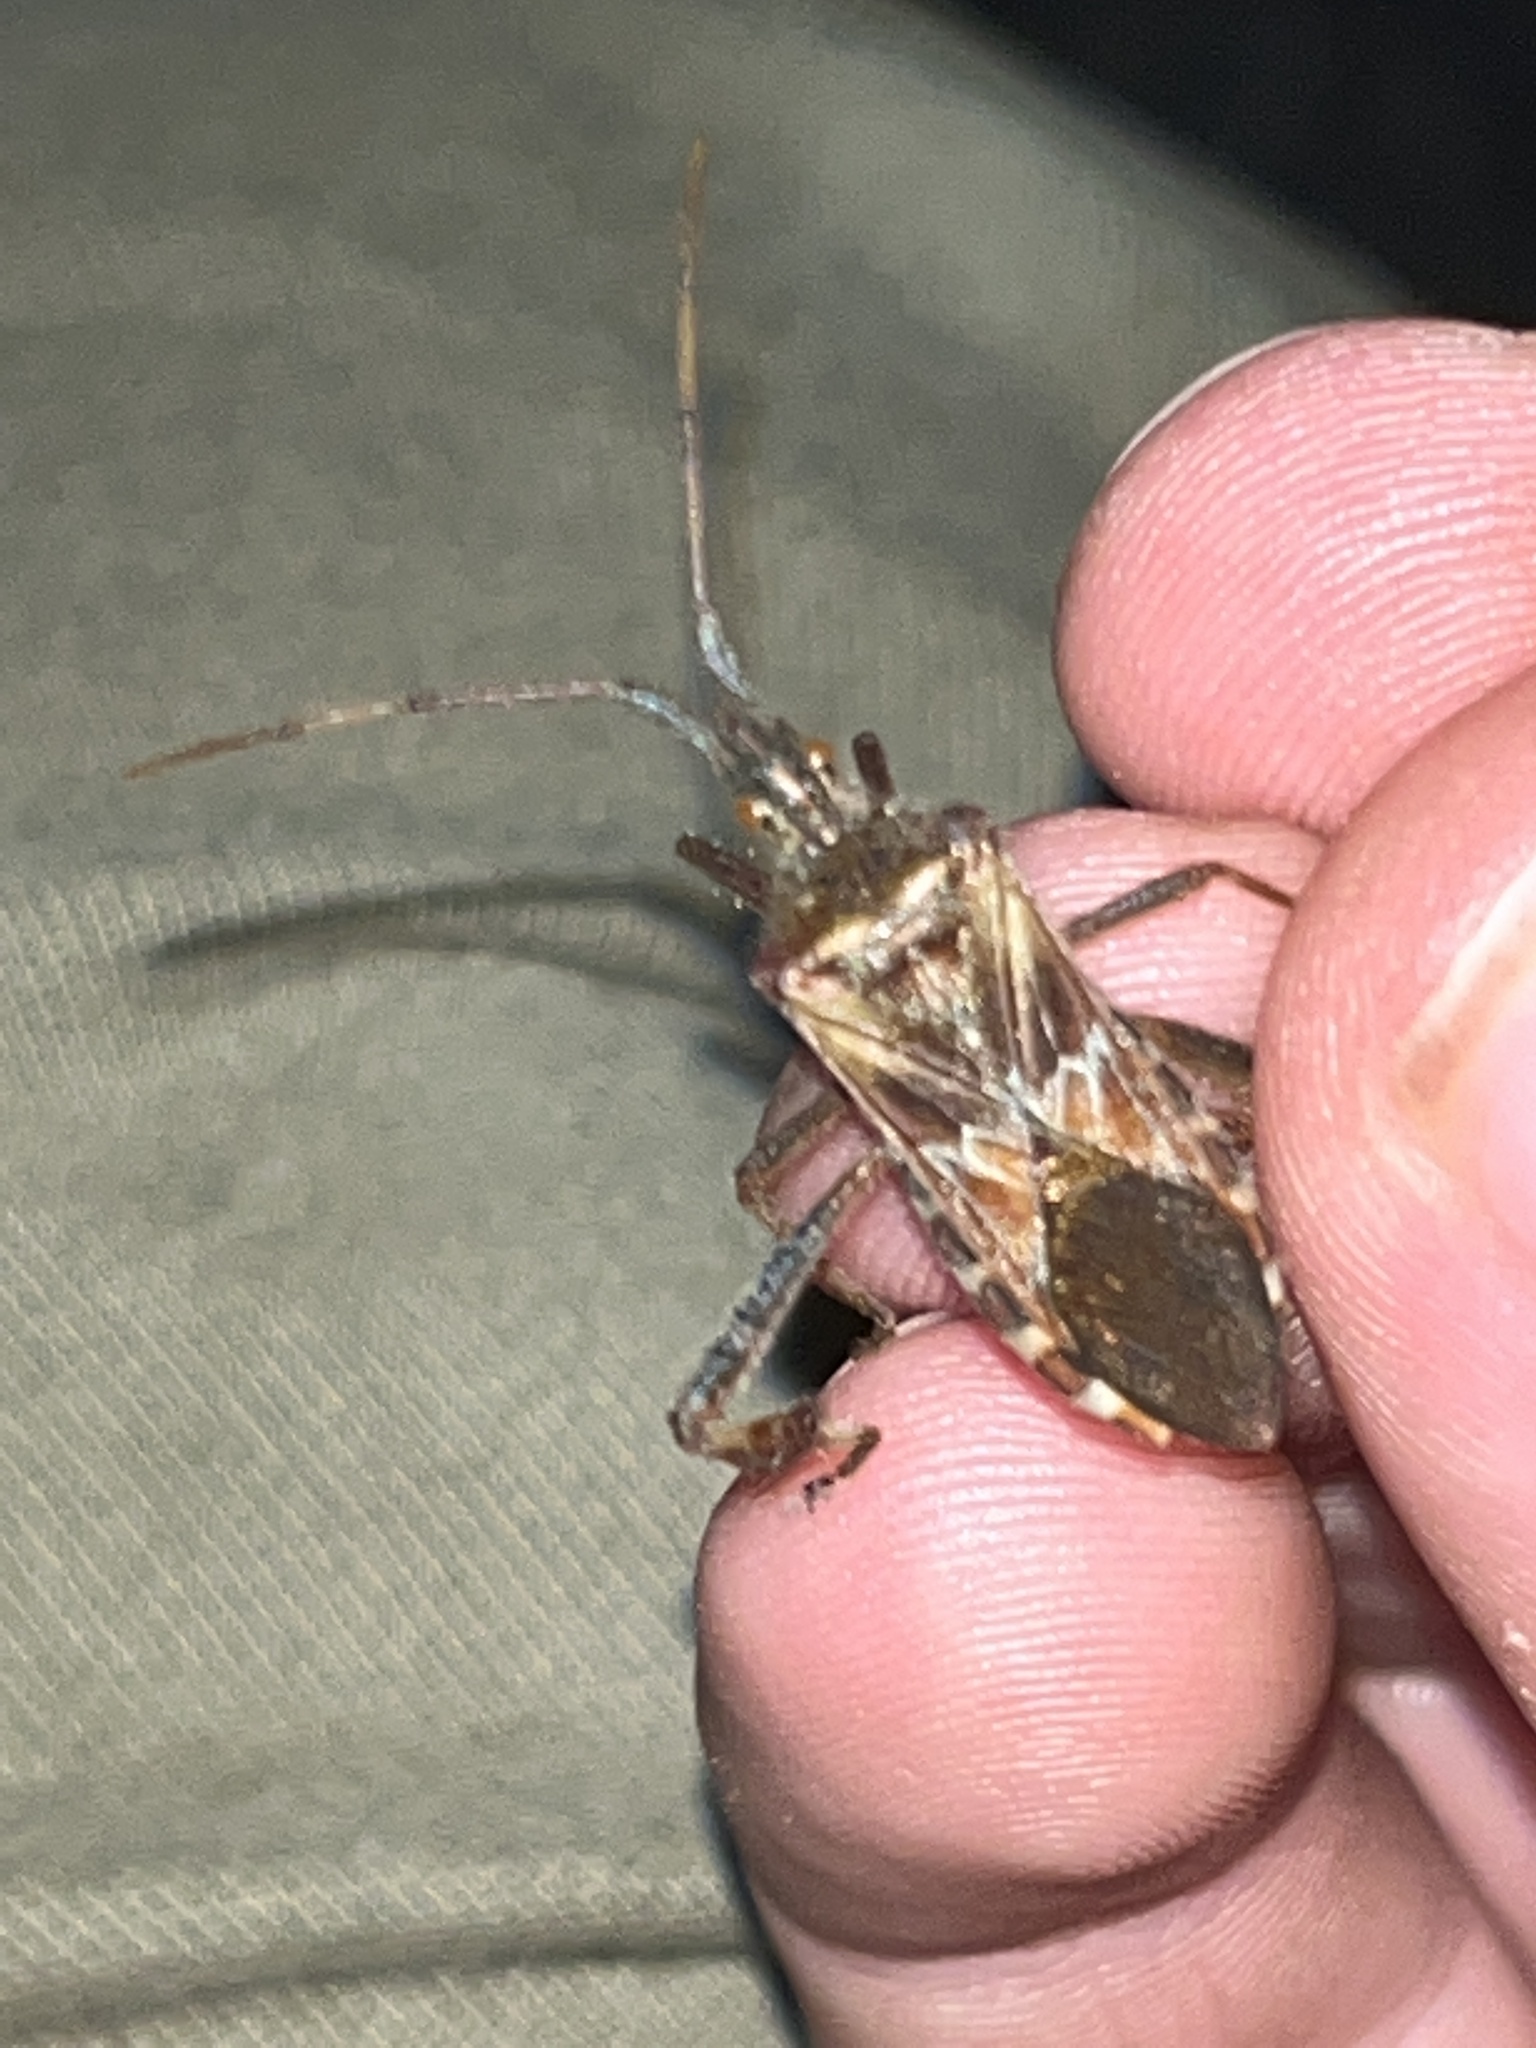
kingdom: Animalia
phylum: Arthropoda
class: Insecta
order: Hemiptera
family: Coreidae
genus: Leptoglossus
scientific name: Leptoglossus occidentalis
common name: Western conifer-seed bug
